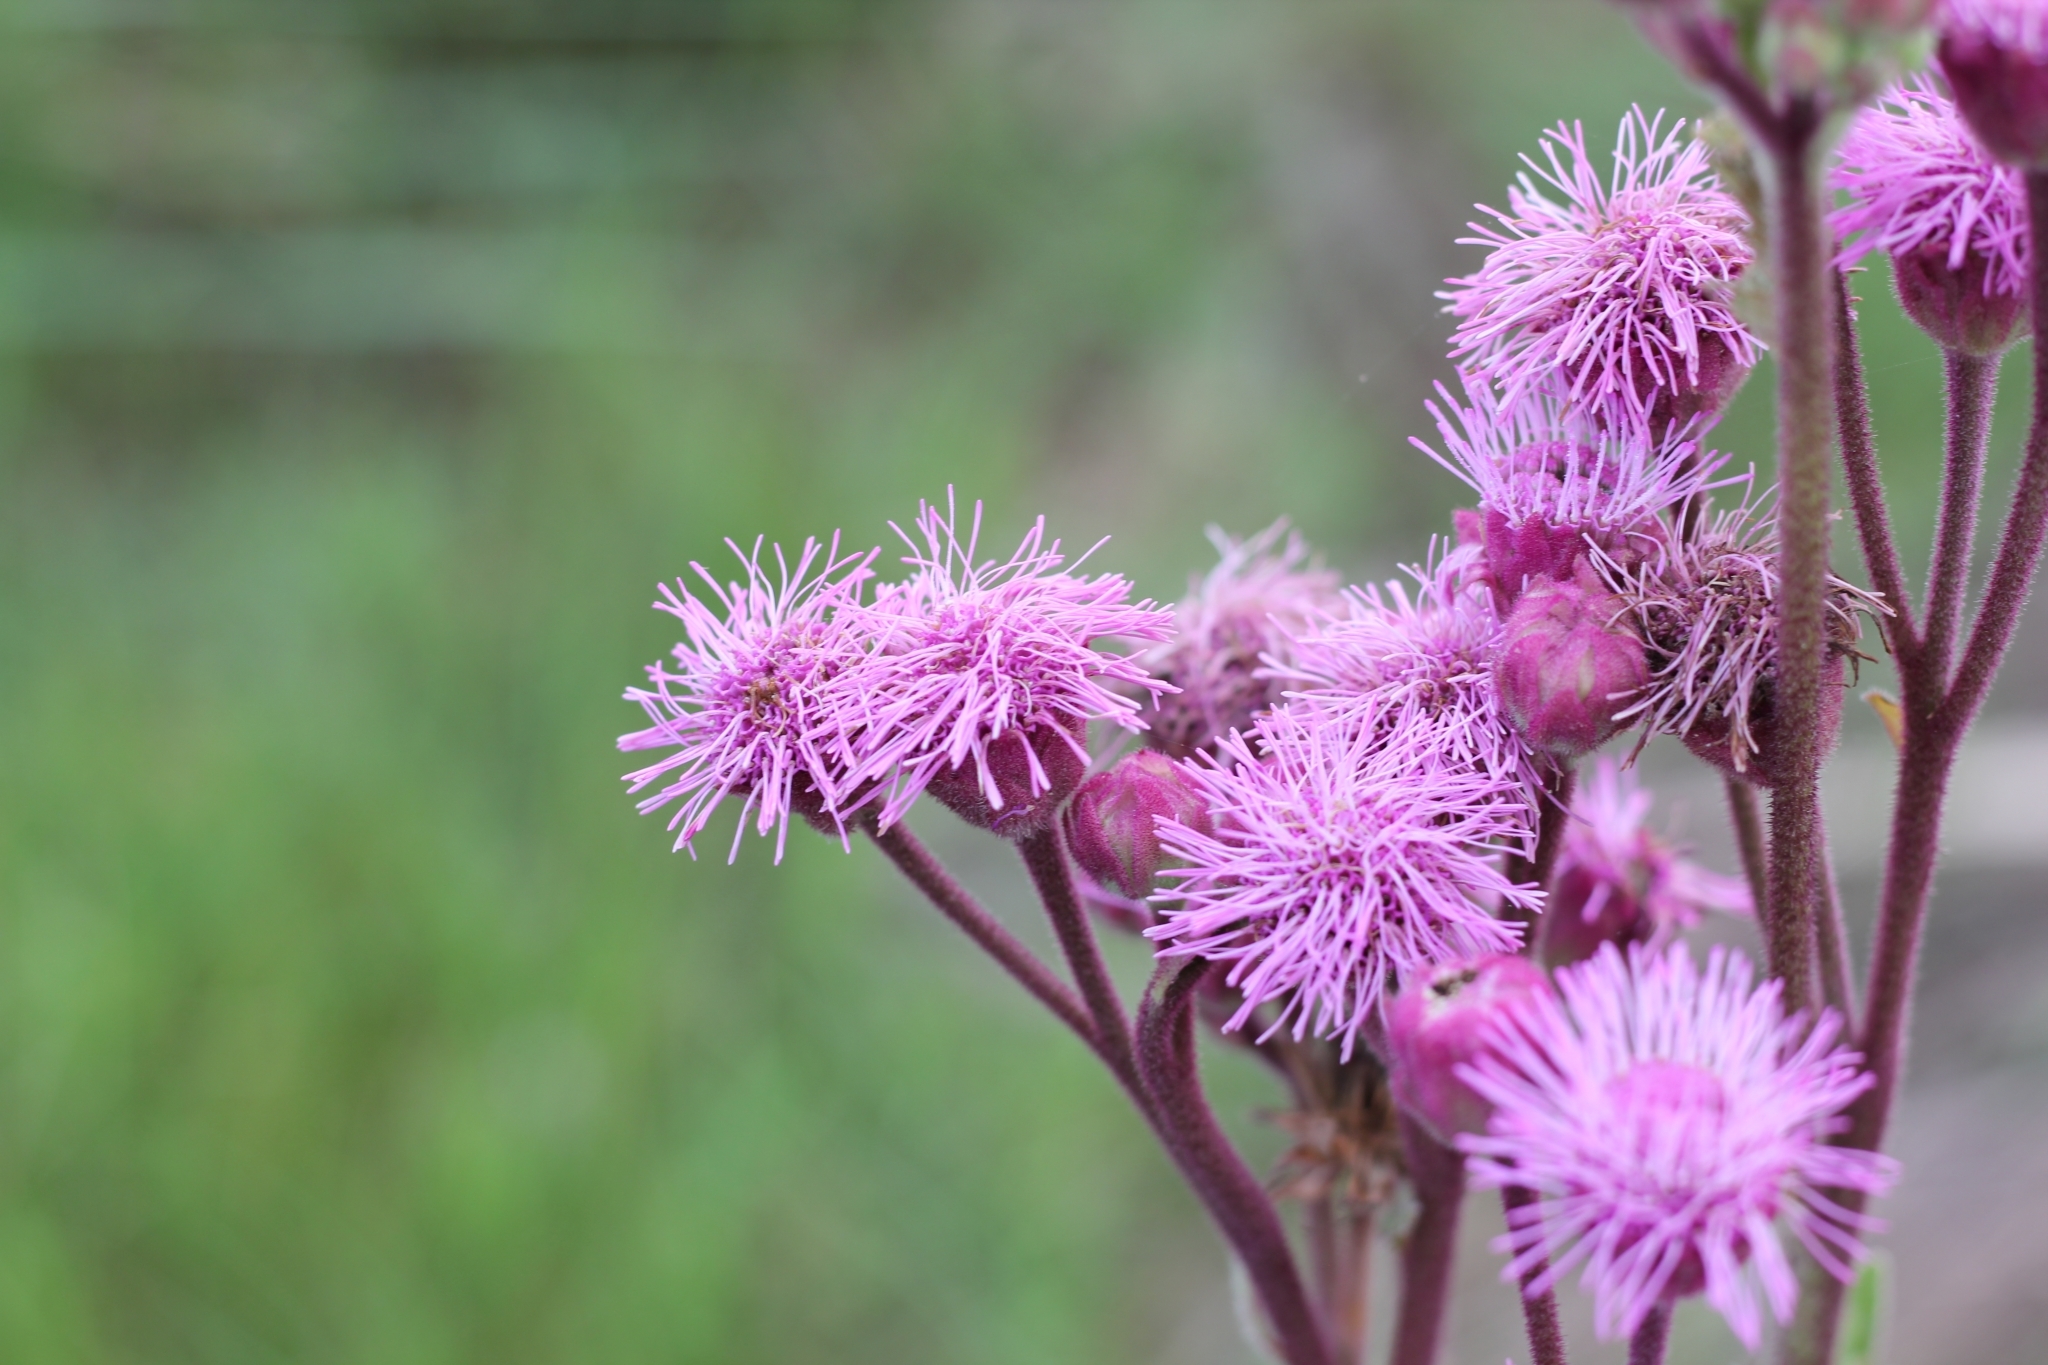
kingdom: Plantae
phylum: Tracheophyta
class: Magnoliopsida
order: Asterales
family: Asteraceae
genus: Campuloclinium
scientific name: Campuloclinium macrocephalum
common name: Pompomweed
